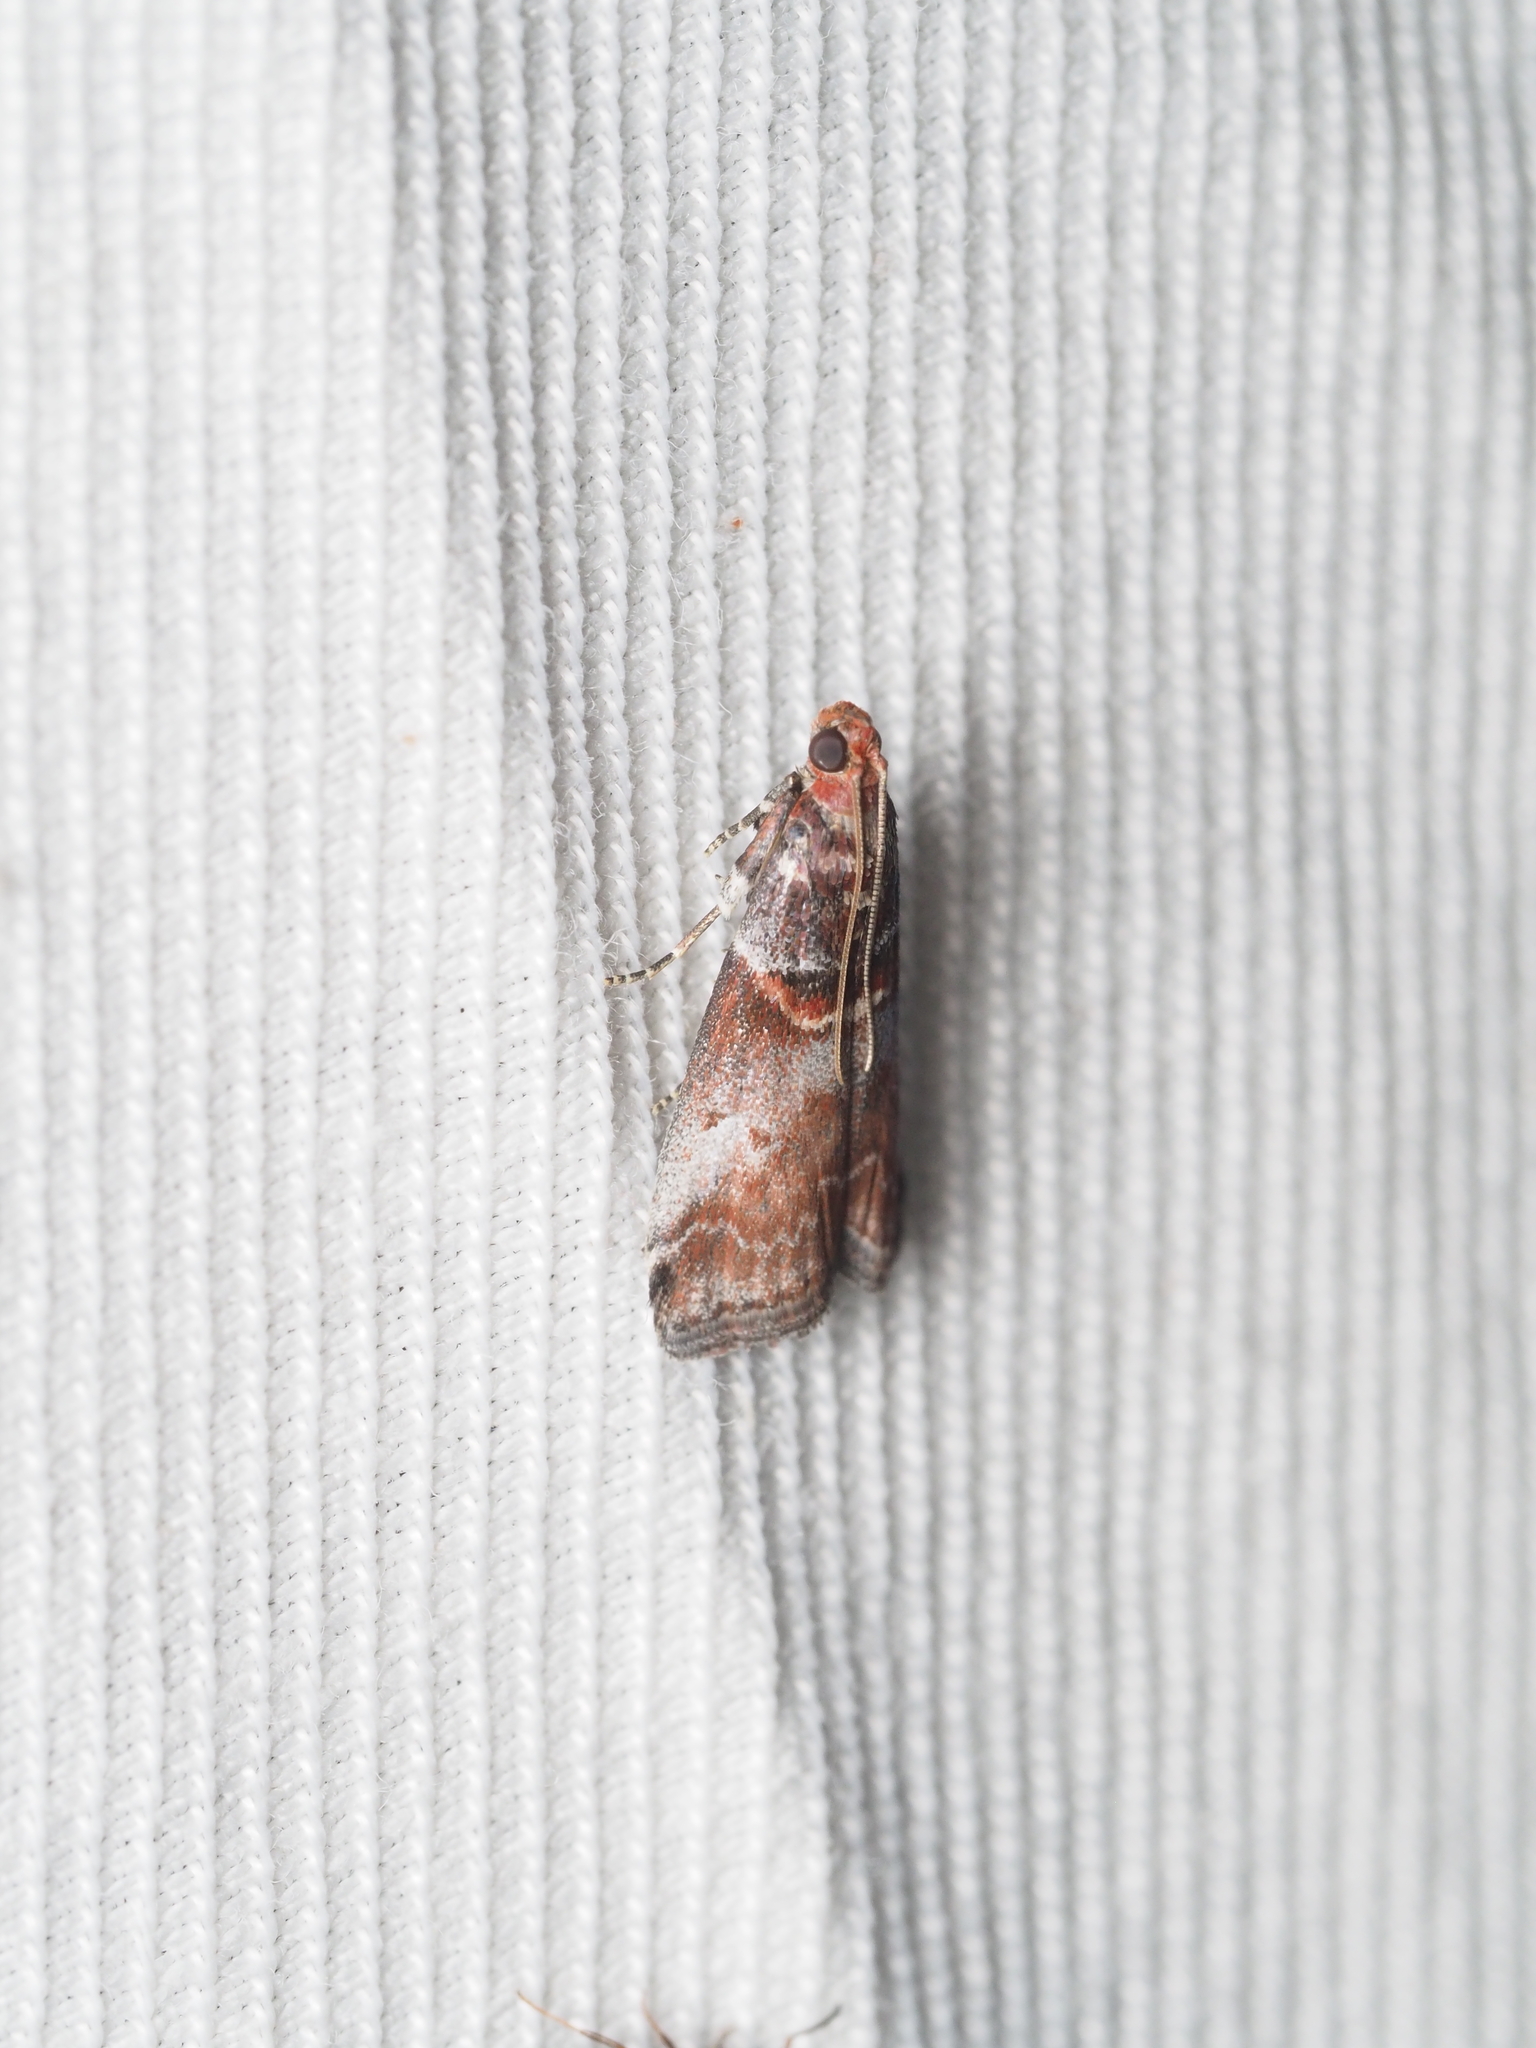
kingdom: Animalia
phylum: Arthropoda
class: Insecta
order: Lepidoptera
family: Pyralidae
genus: Acrobasis
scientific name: Acrobasis advenella
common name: Grey knot-horn
